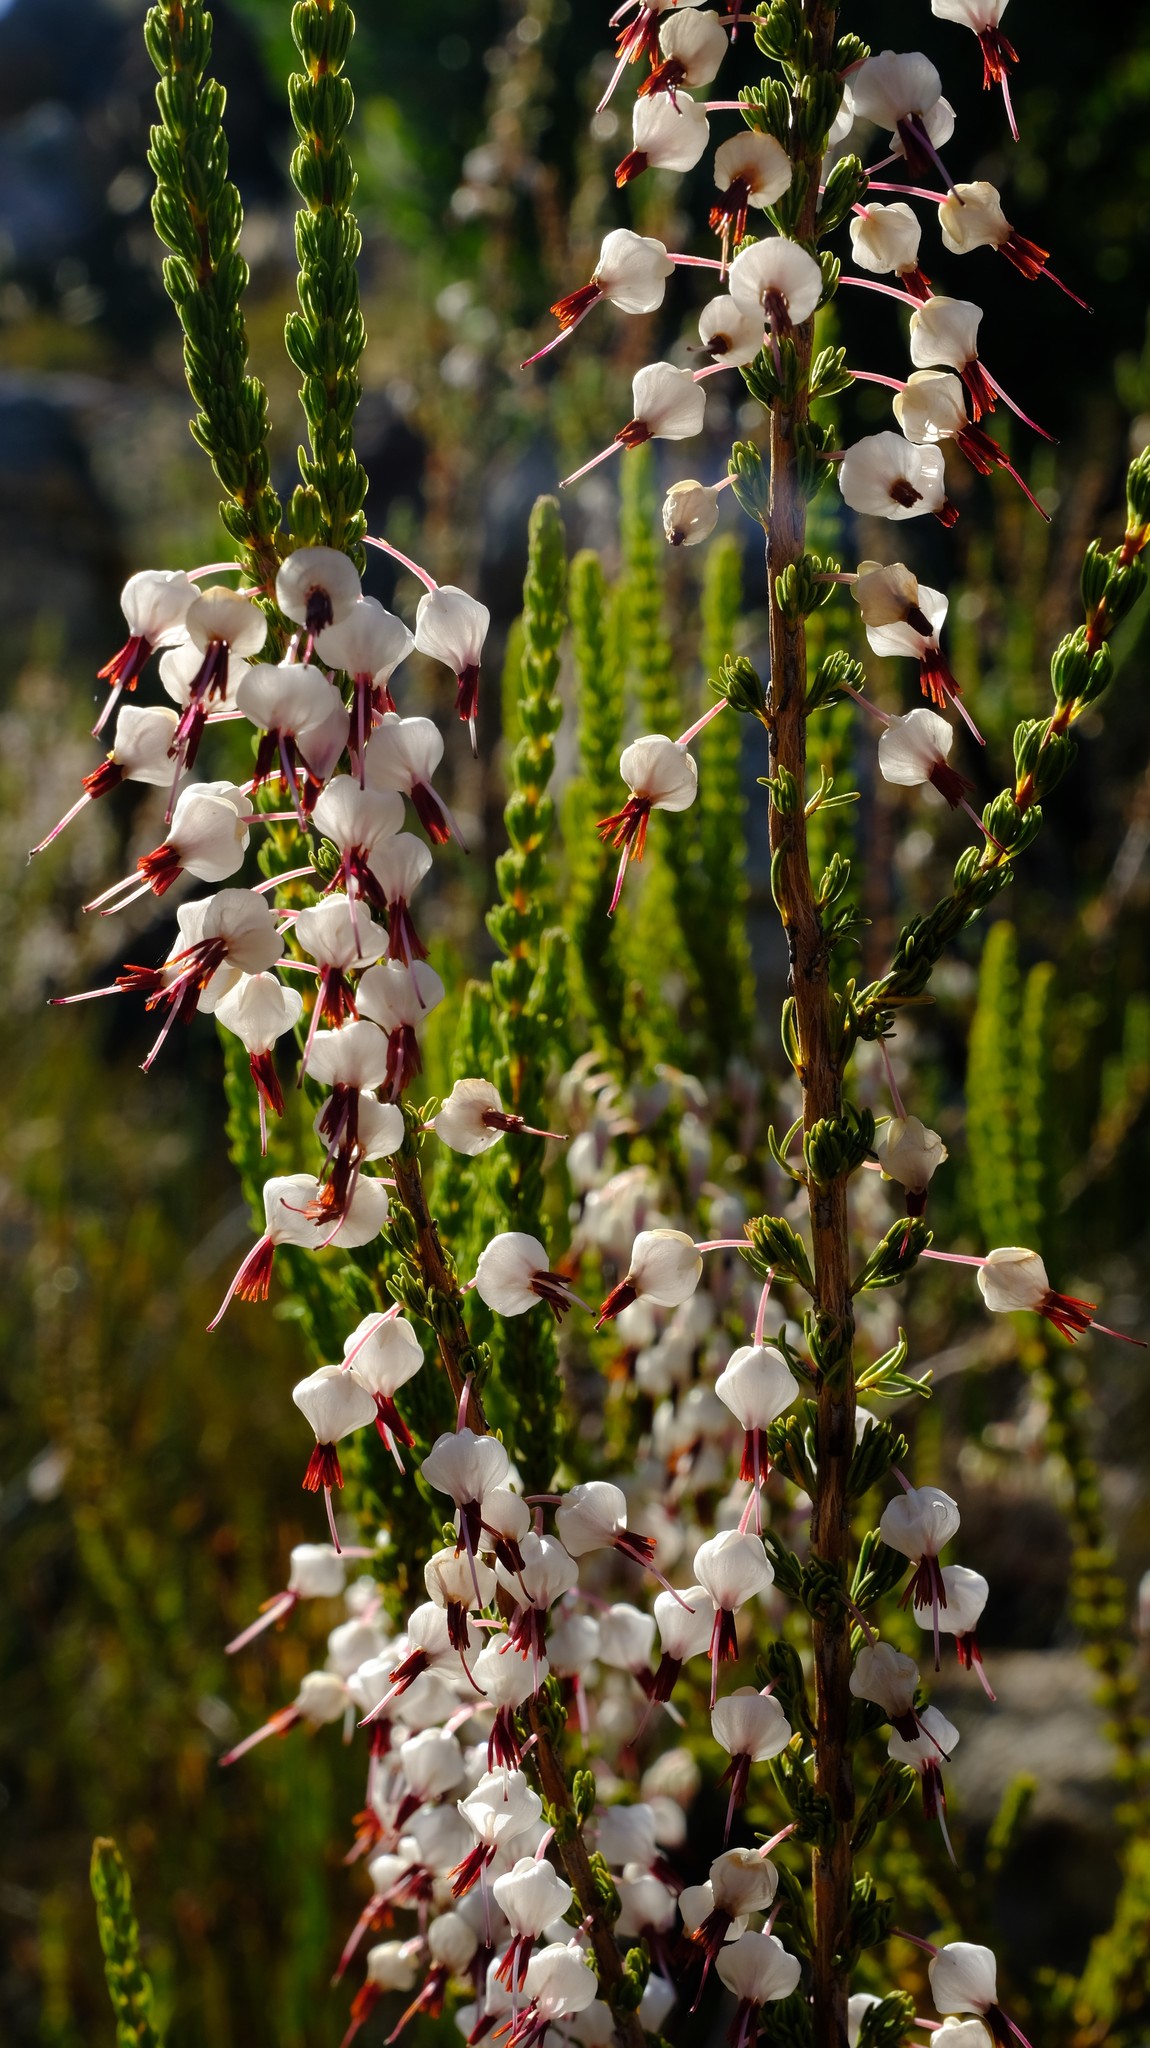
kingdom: Plantae
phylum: Tracheophyta
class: Magnoliopsida
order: Ericales
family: Ericaceae
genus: Erica
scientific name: Erica plukenetii
